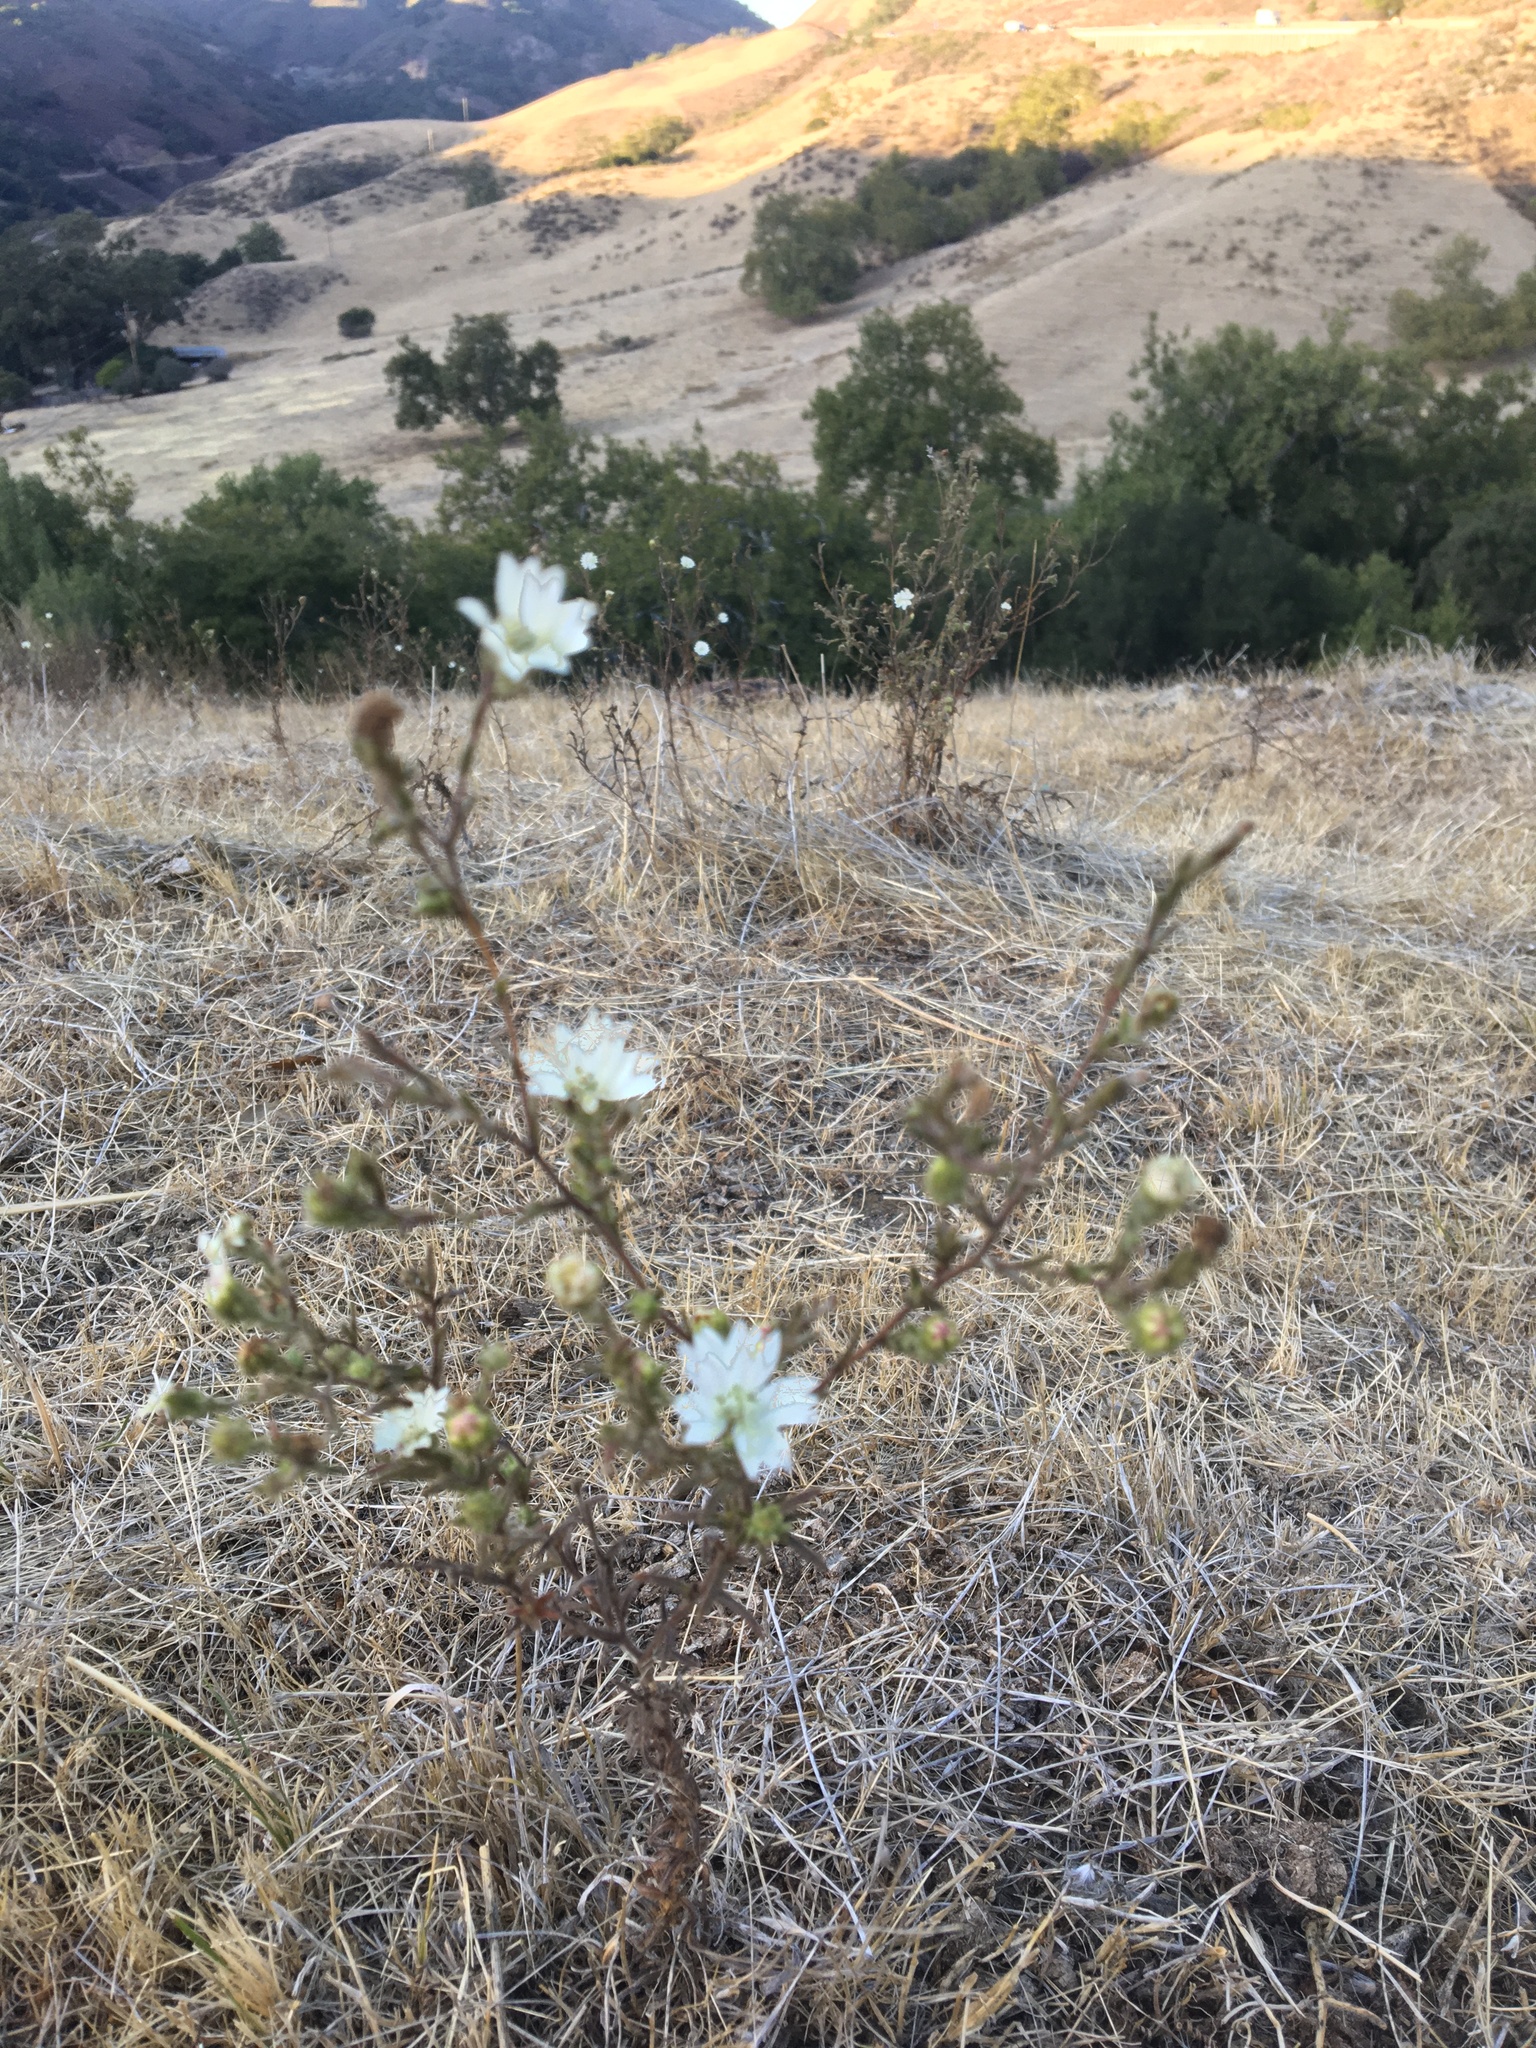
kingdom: Plantae
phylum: Tracheophyta
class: Magnoliopsida
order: Asterales
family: Asteraceae
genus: Hemizonia
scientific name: Hemizonia congesta
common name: Hayfield tarweed
